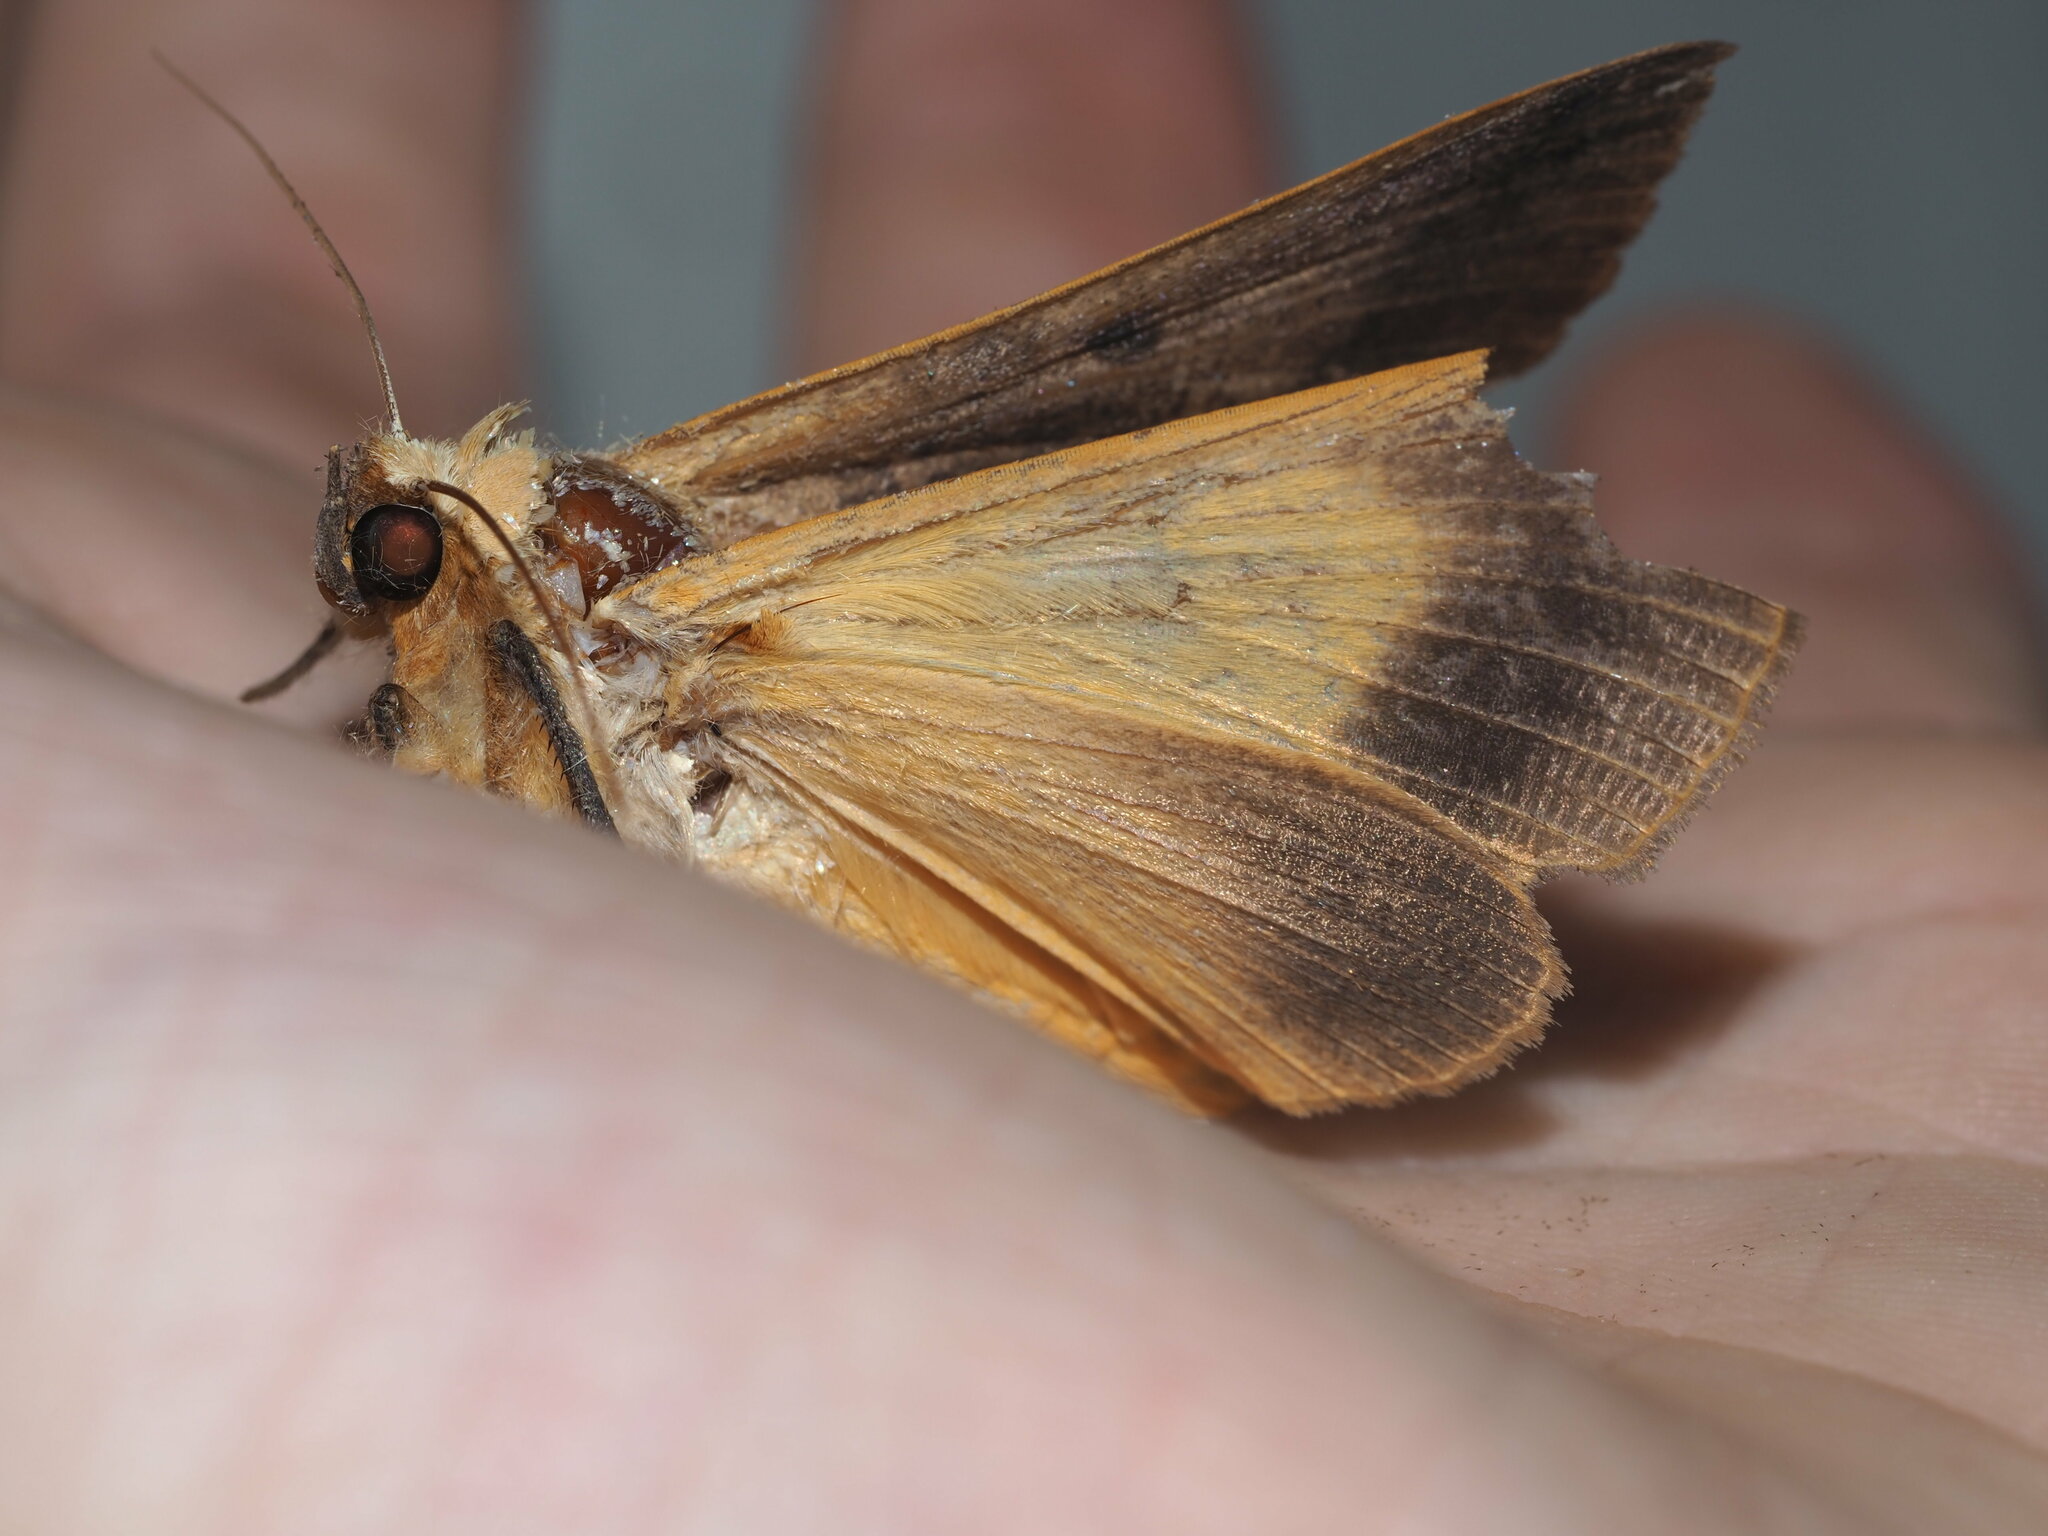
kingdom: Animalia
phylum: Arthropoda
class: Insecta
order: Lepidoptera
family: Erebidae
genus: Ophiusa
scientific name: Ophiusa disjungens
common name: Moth
